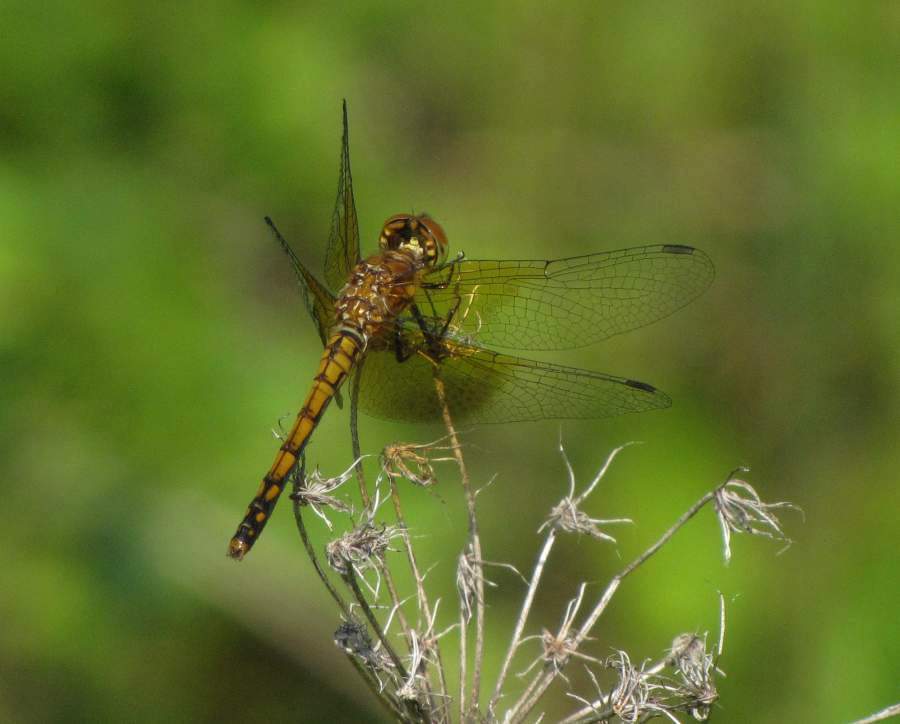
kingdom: Animalia
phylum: Arthropoda
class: Insecta
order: Odonata
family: Libellulidae
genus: Sympetrum
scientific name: Sympetrum semicinctum
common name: Band-winged meadowhawk
